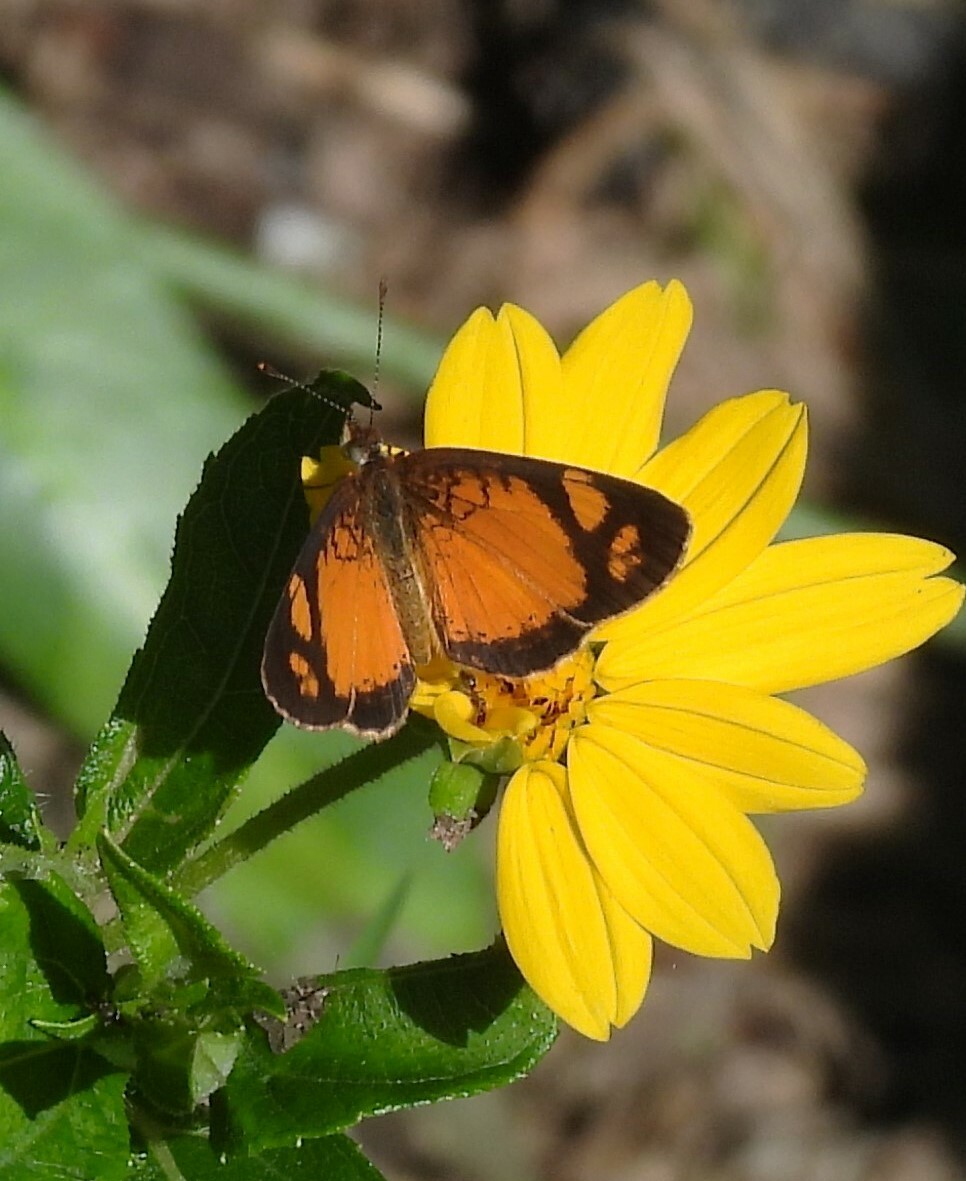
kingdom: Animalia
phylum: Arthropoda
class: Insecta
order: Lepidoptera
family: Nymphalidae
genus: Tegosa
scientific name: Tegosa claudina
